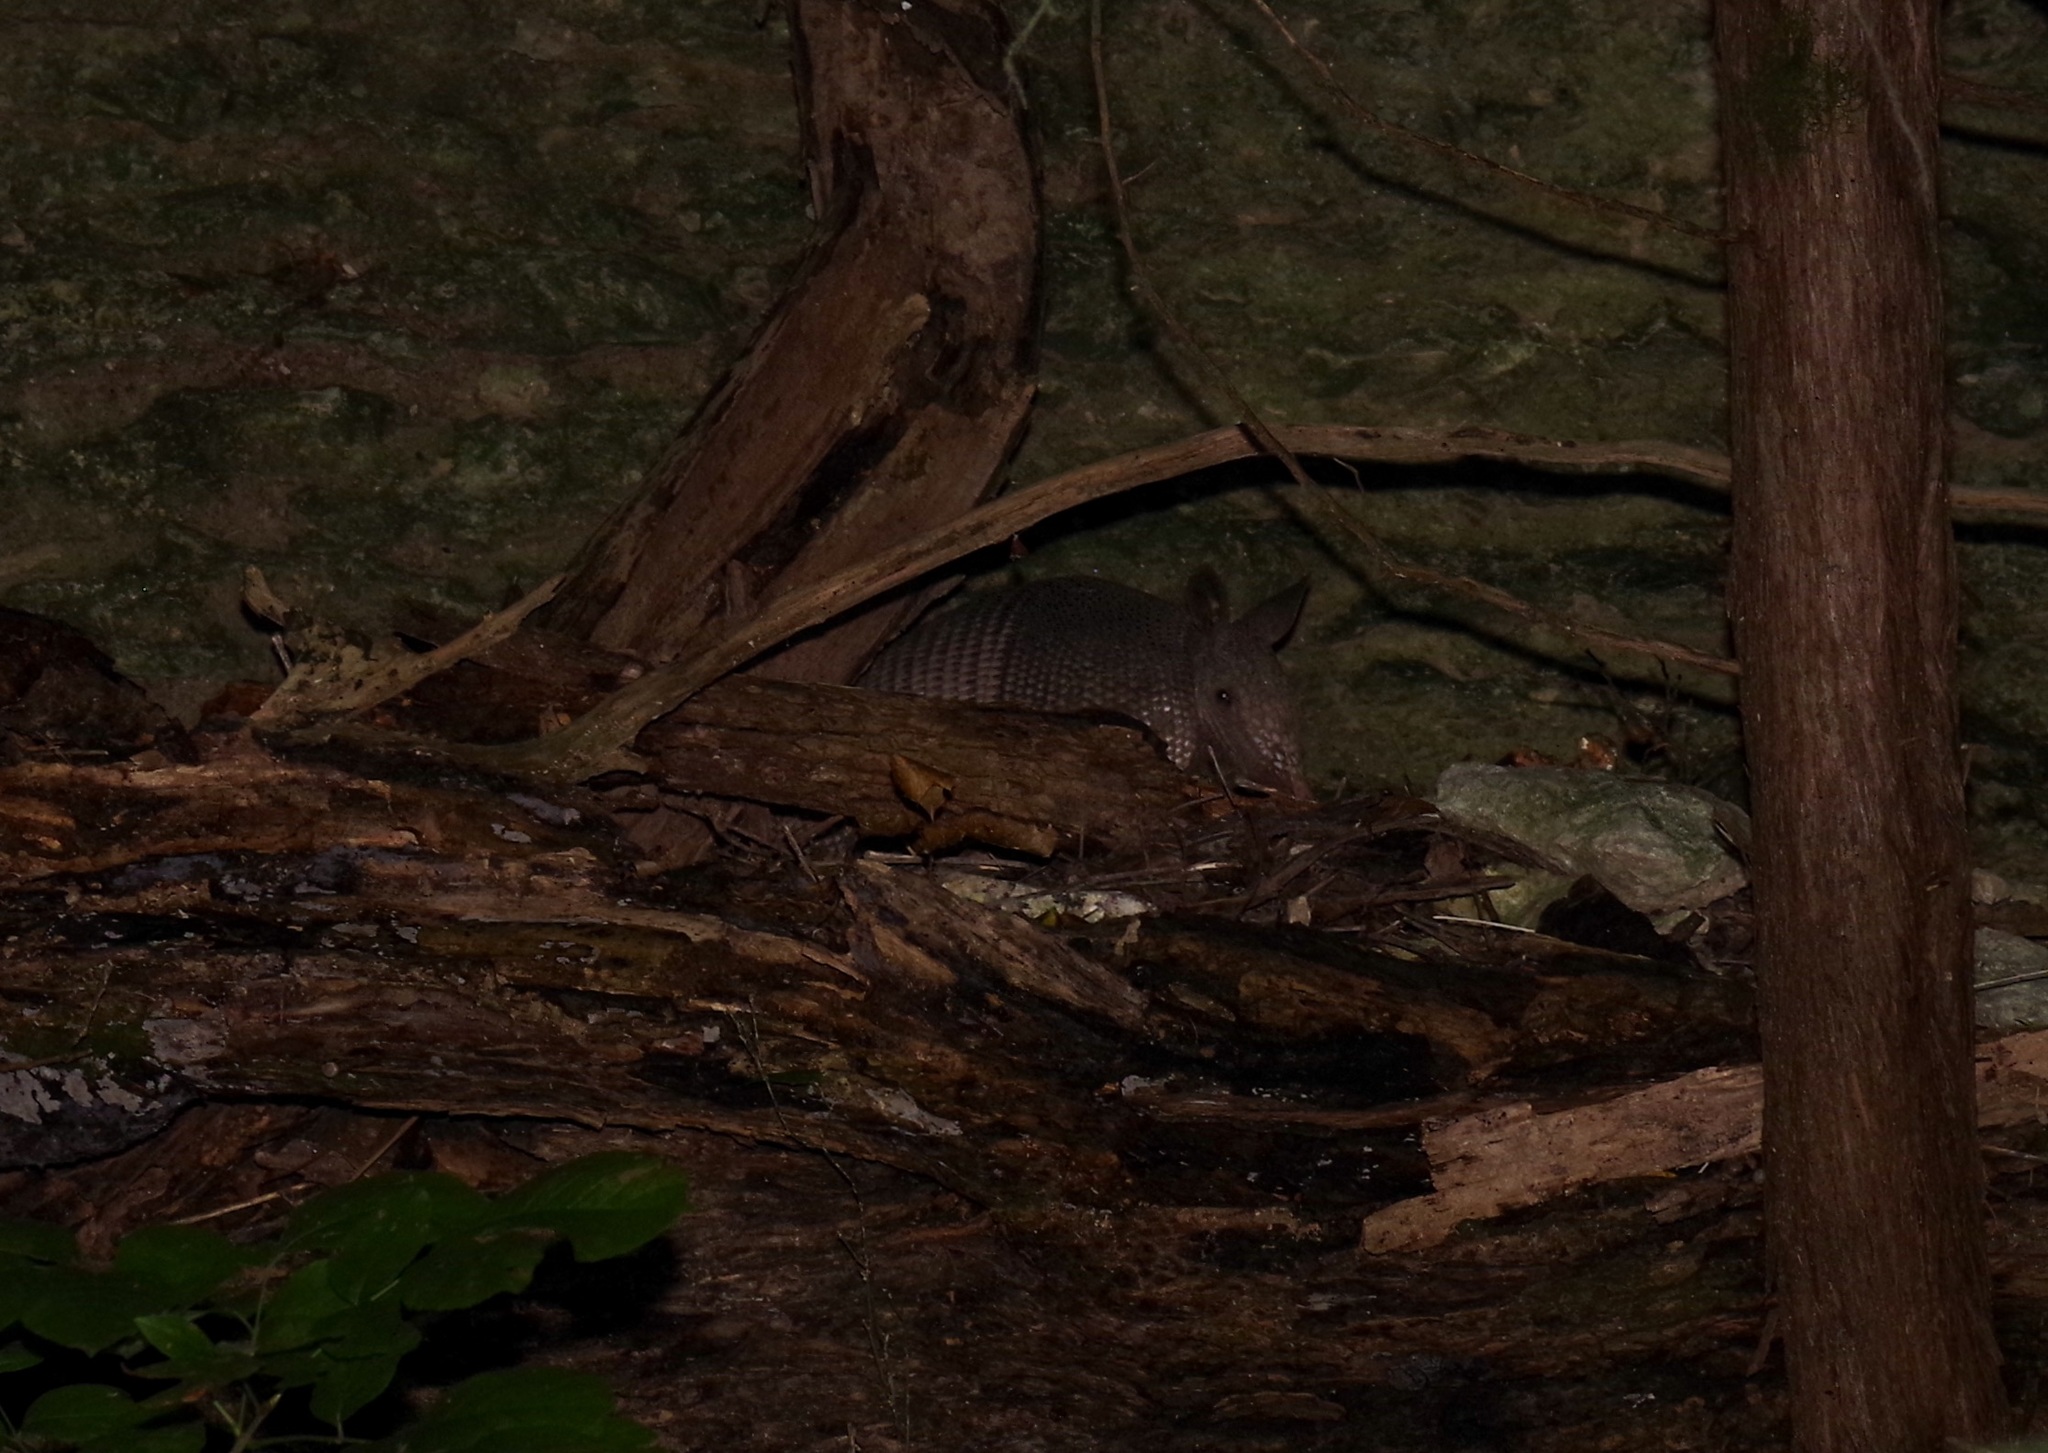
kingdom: Animalia
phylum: Chordata
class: Mammalia
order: Cingulata
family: Dasypodidae
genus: Dasypus
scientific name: Dasypus novemcinctus
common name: Nine-banded armadillo
